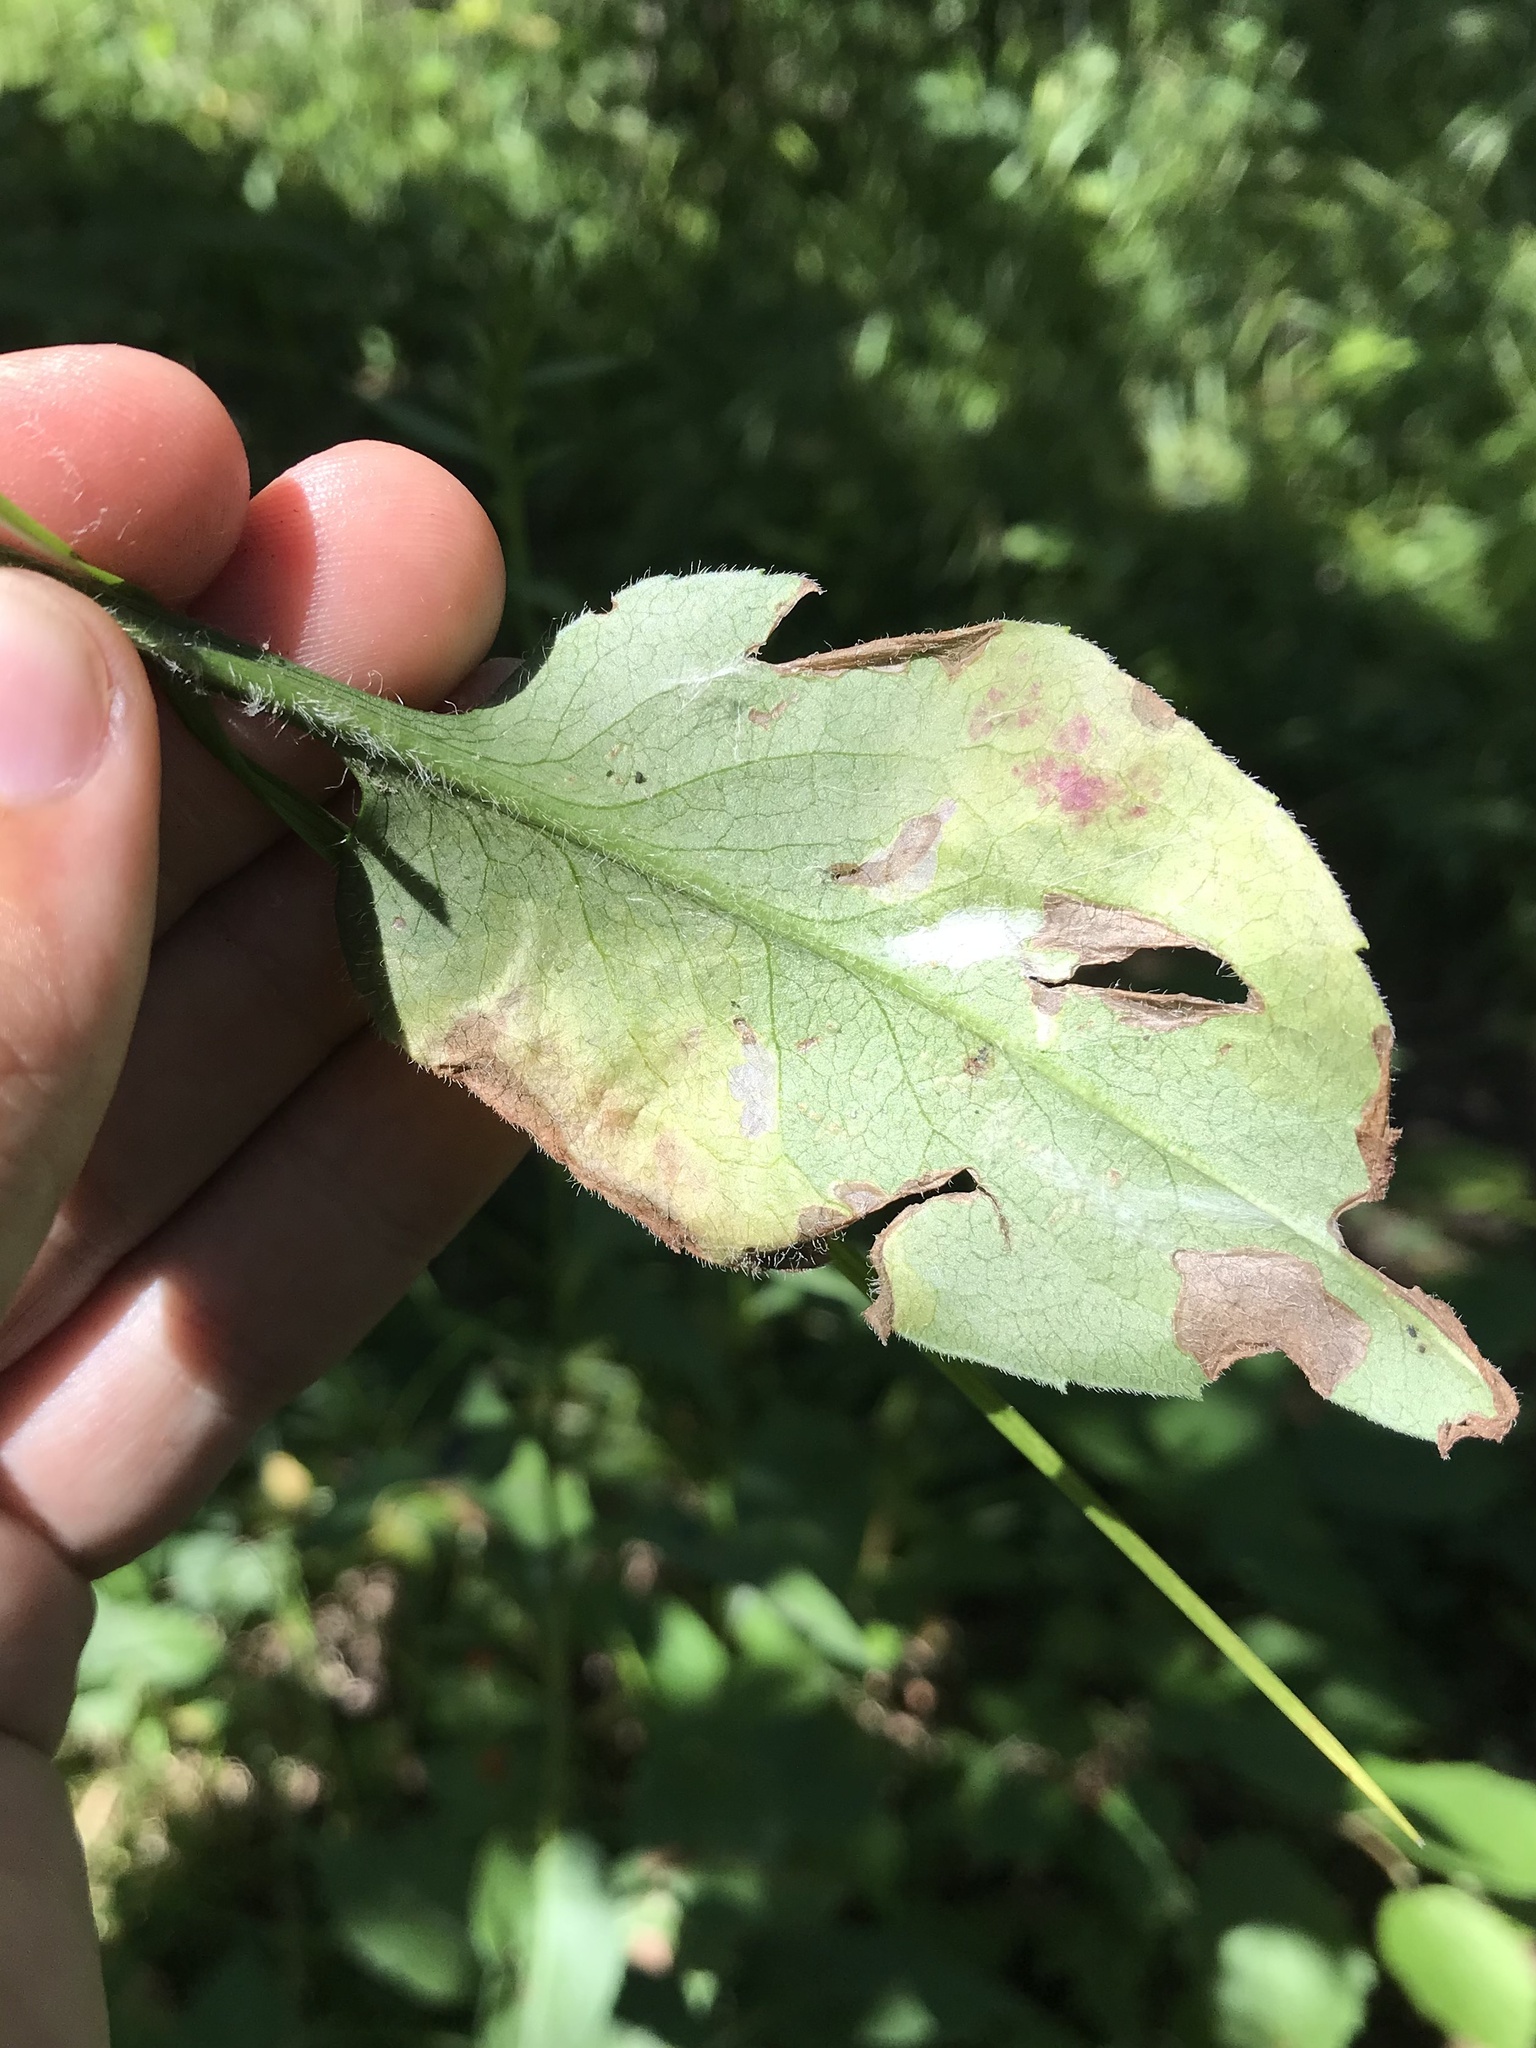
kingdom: Animalia
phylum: Arthropoda
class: Insecta
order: Lepidoptera
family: Gracillariidae
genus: Acrocercops
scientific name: Acrocercops astericola
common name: Aster tentiform blotchminer
